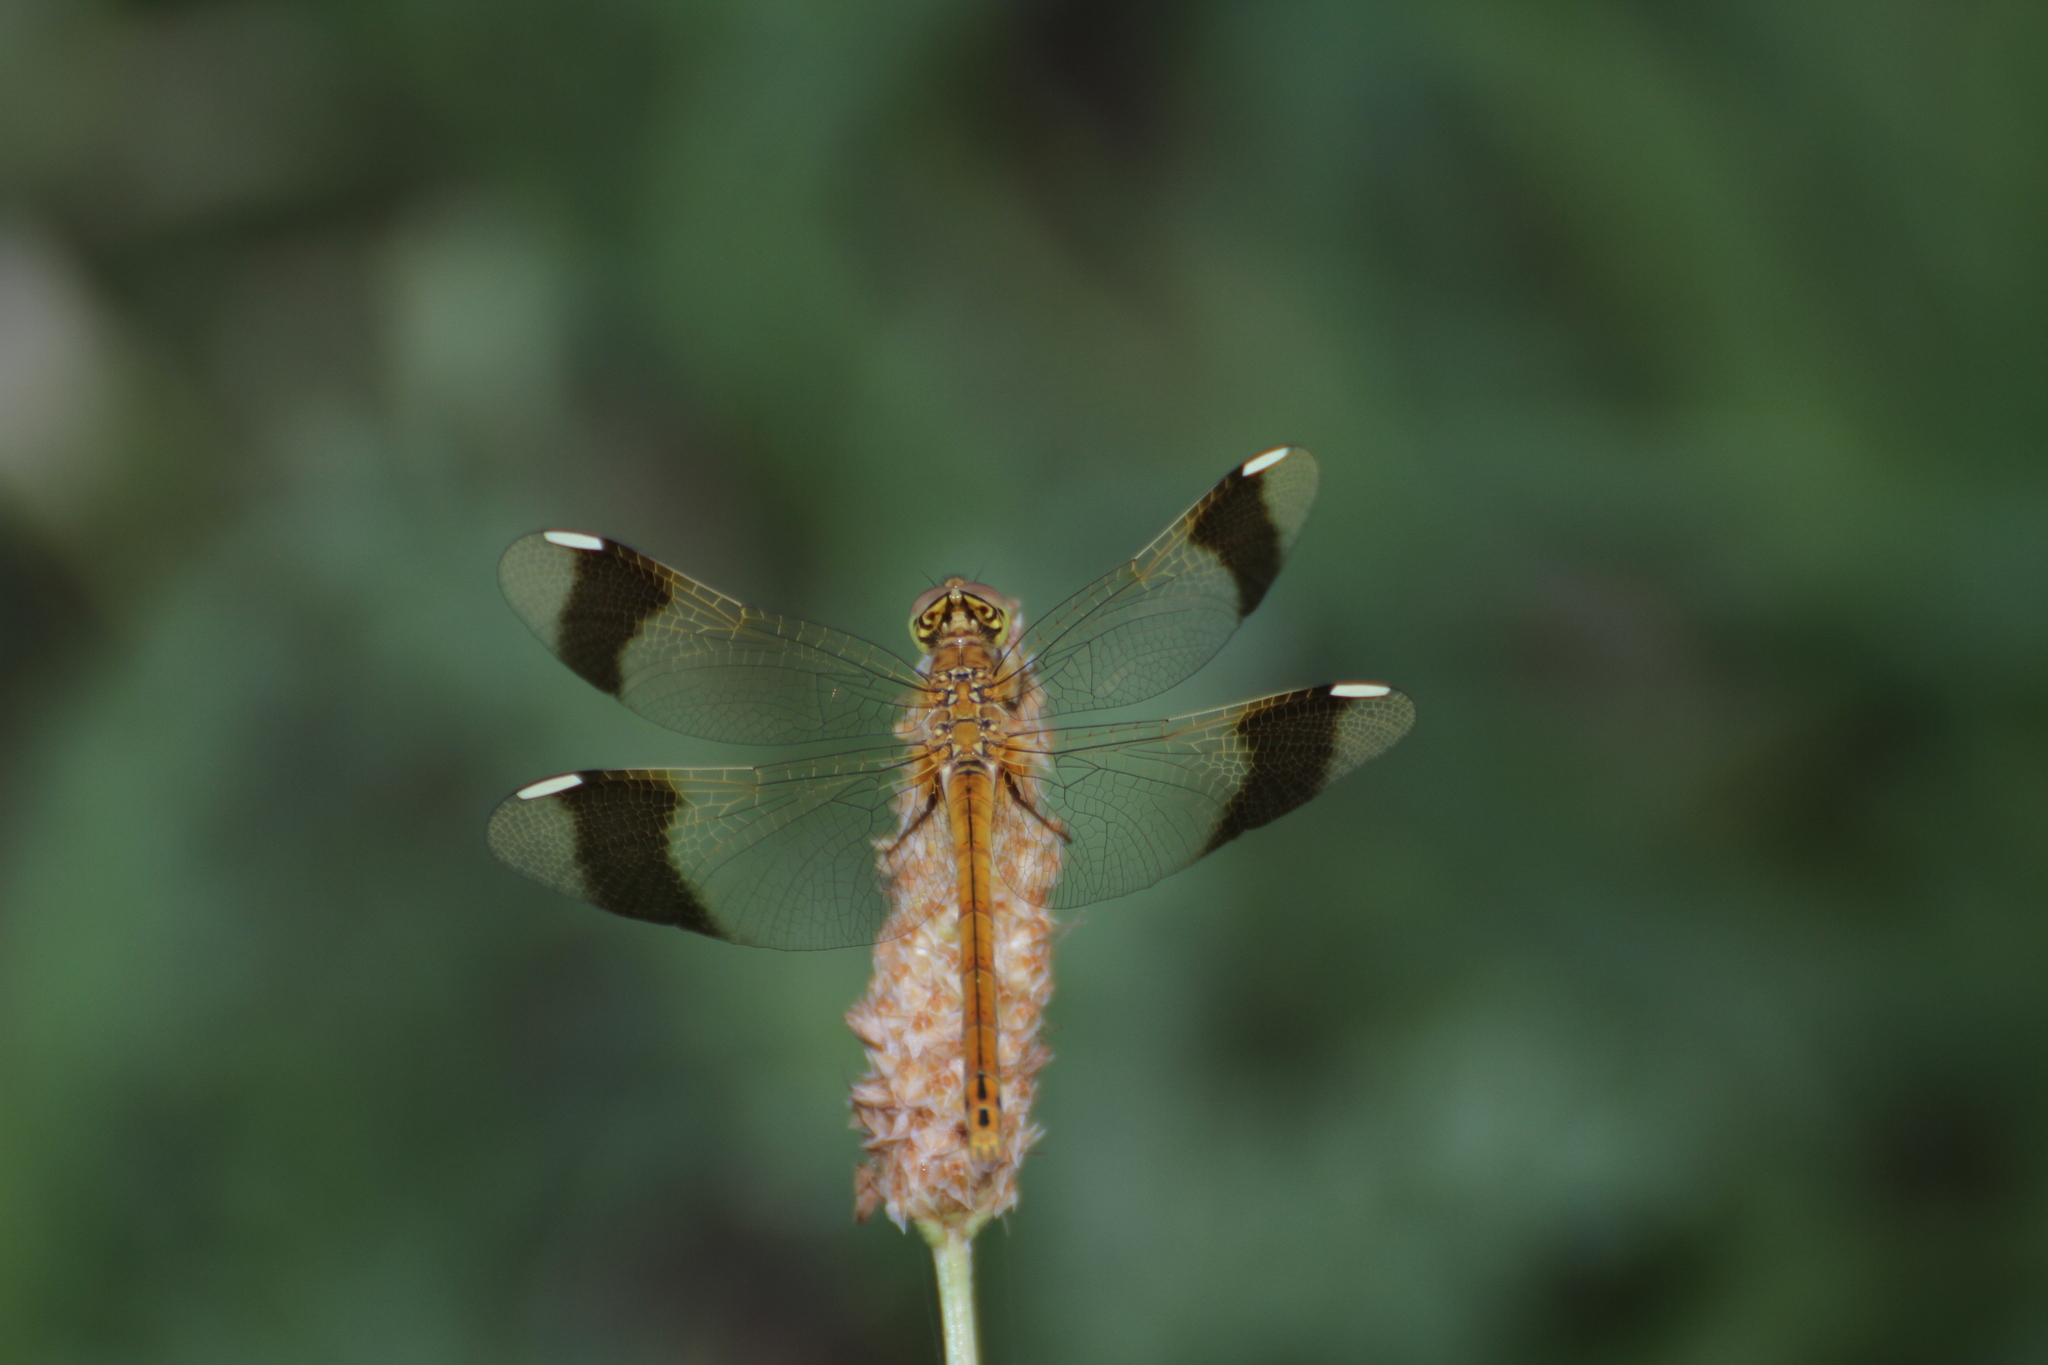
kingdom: Animalia
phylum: Arthropoda
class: Insecta
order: Odonata
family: Libellulidae
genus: Sympetrum
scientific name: Sympetrum pedemontanum
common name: Banded darter
